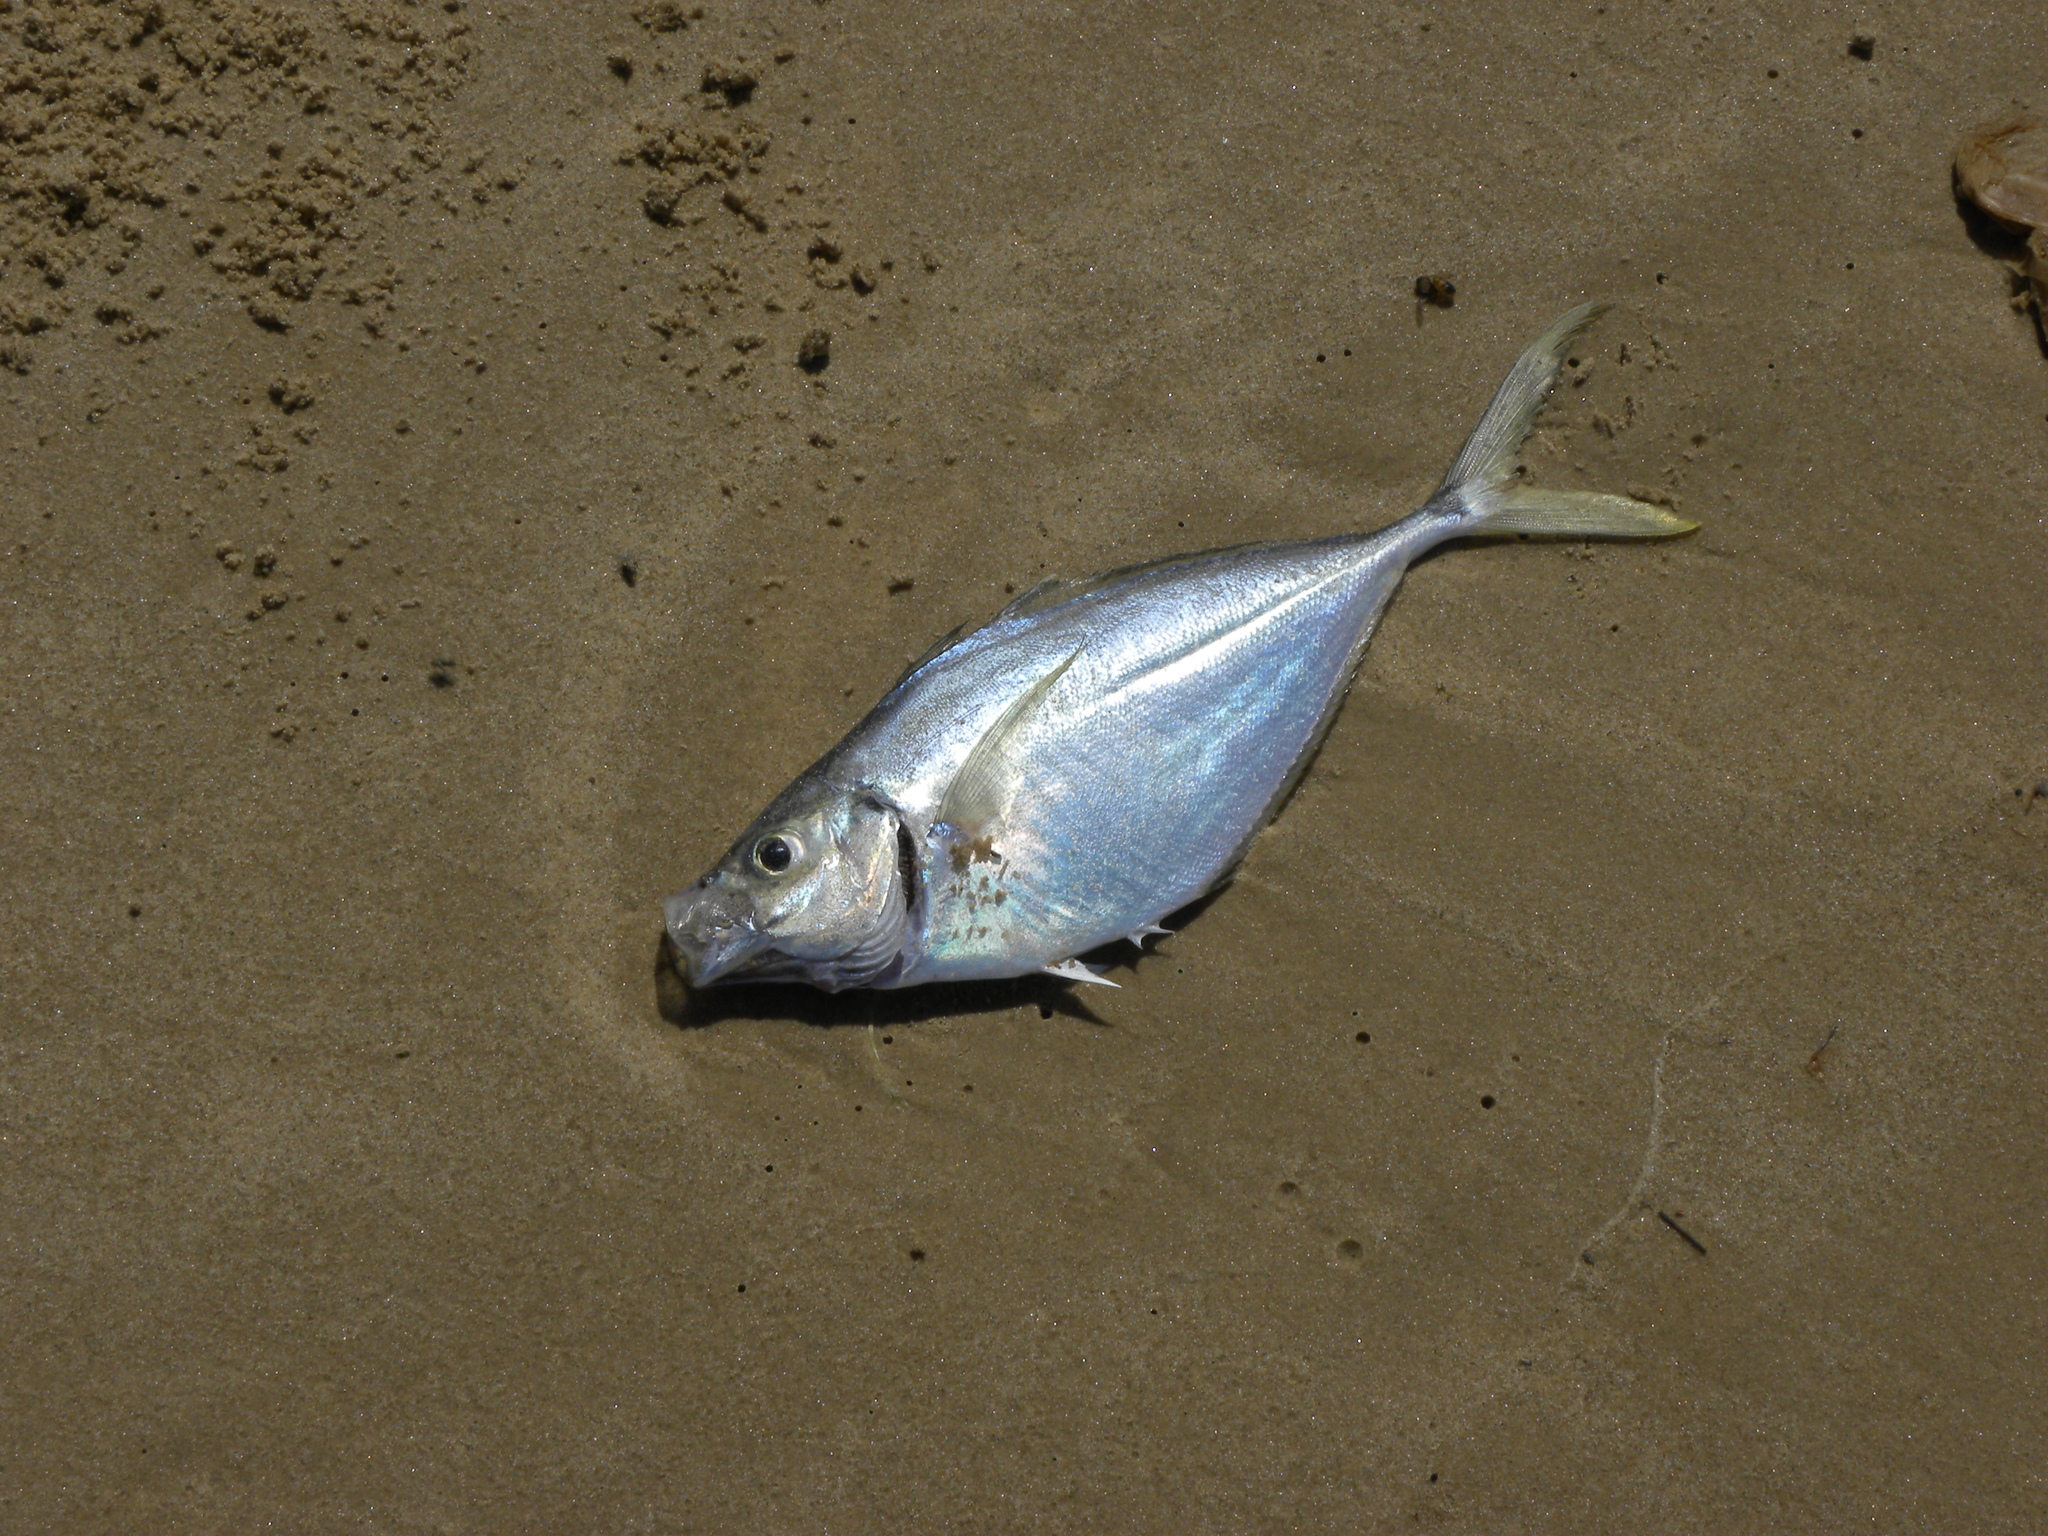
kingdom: Animalia
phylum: Chordata
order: Perciformes
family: Carangidae
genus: Chloroscombrus
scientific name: Chloroscombrus chrysurus
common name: Bumper
